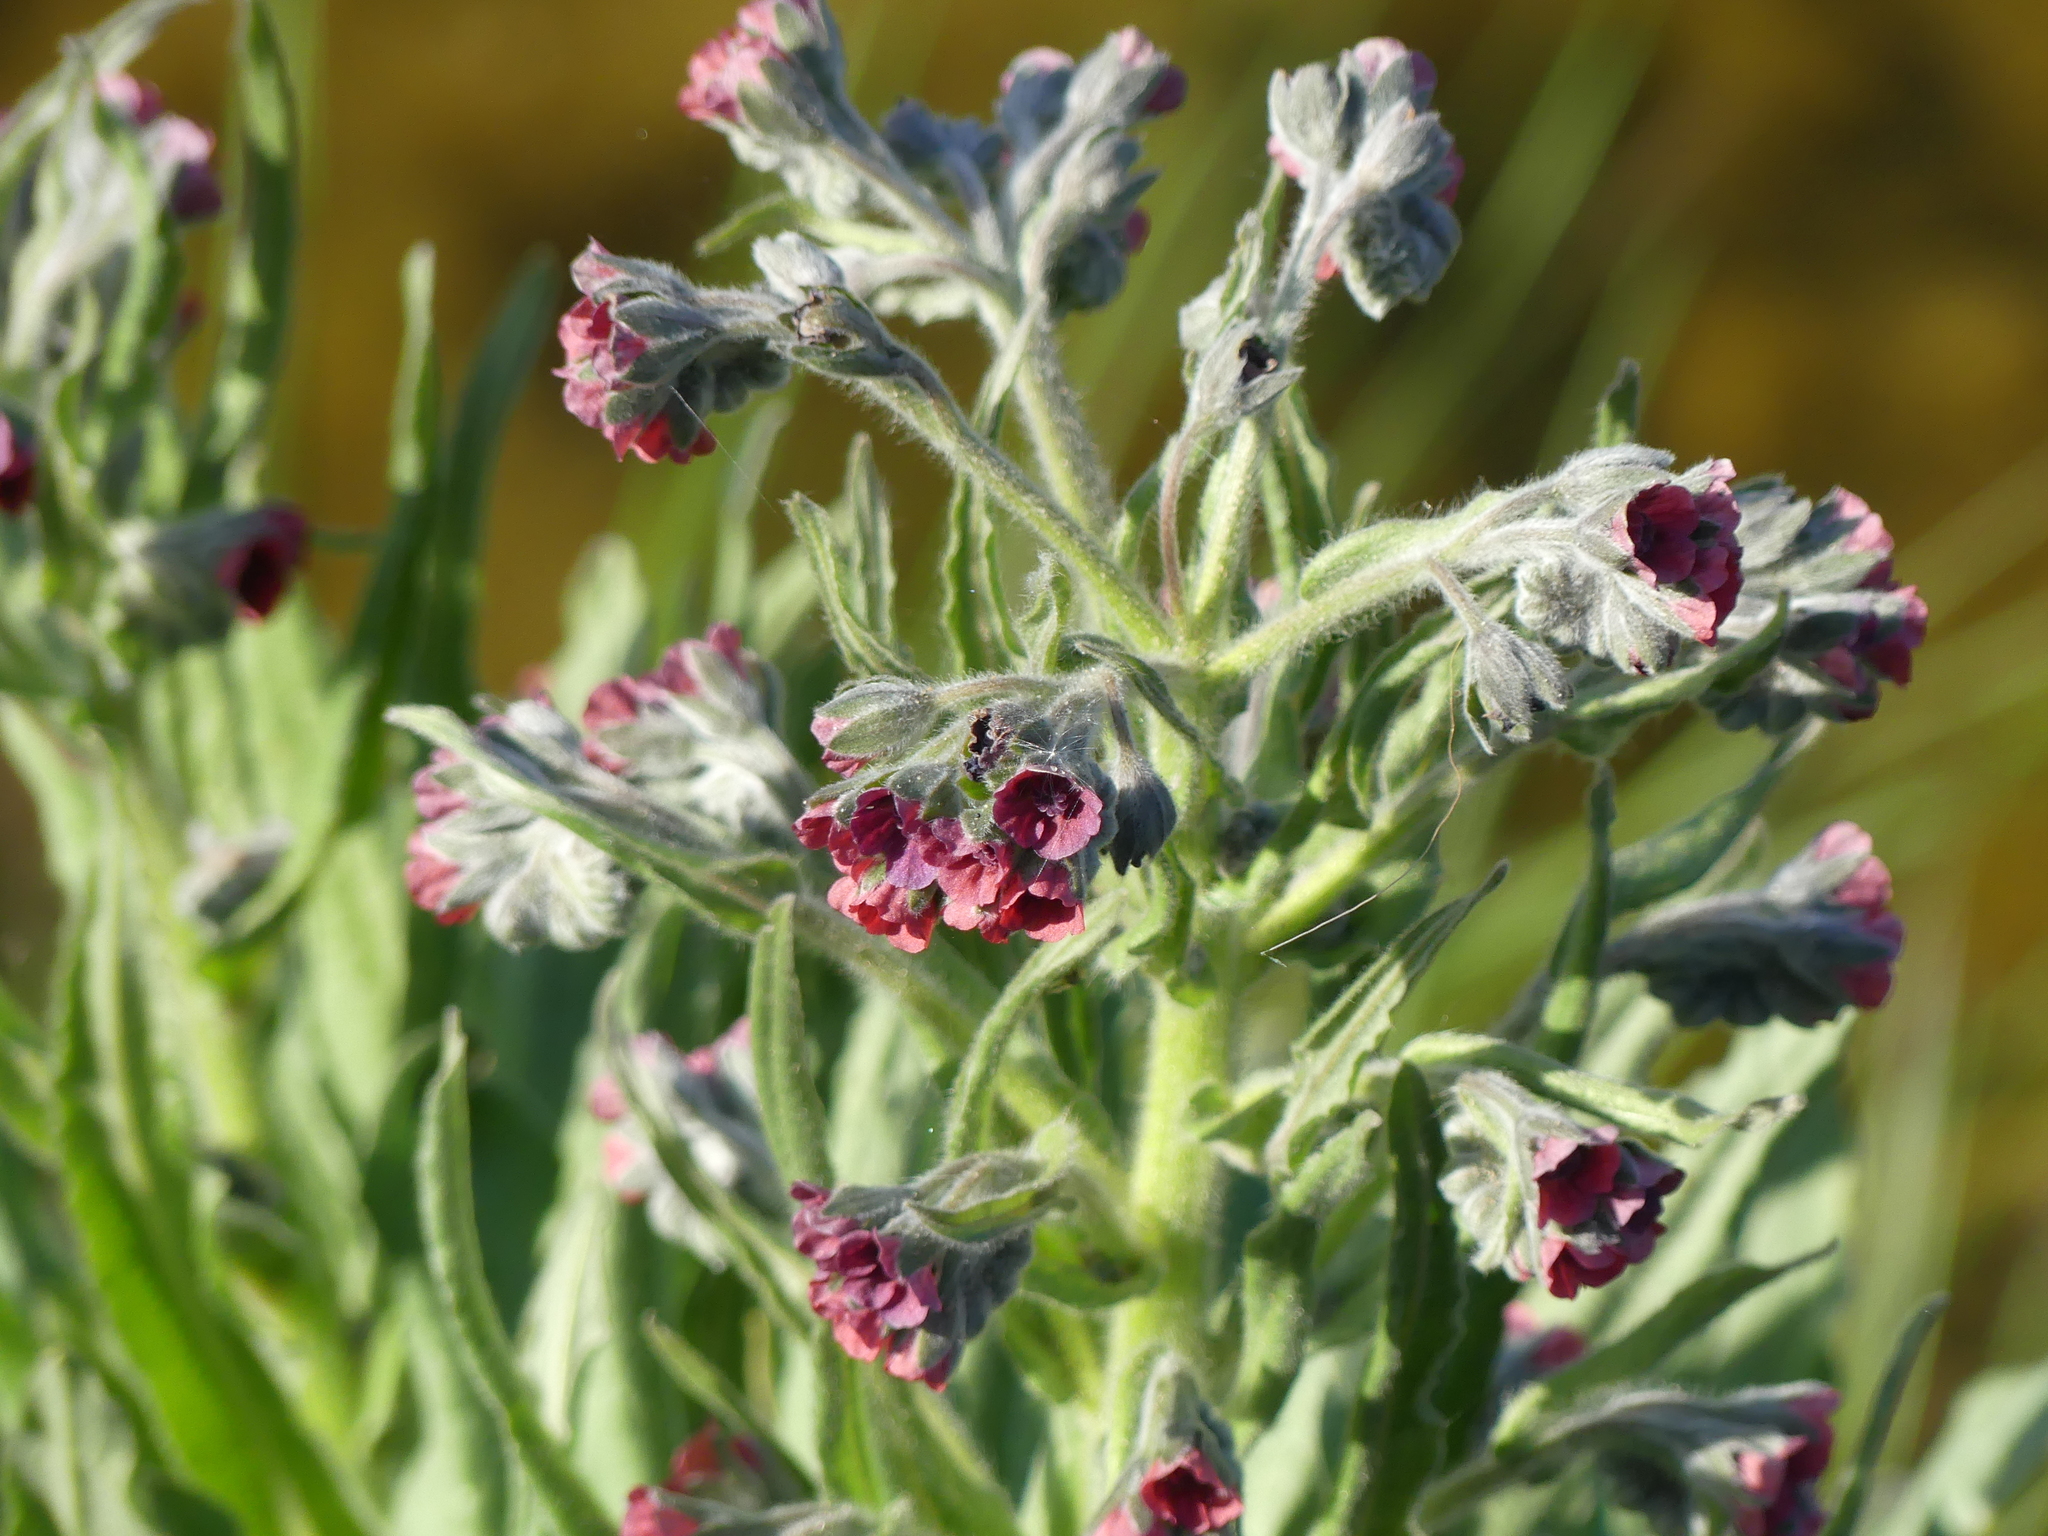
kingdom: Plantae
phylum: Tracheophyta
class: Magnoliopsida
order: Boraginales
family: Boraginaceae
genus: Cynoglossum
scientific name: Cynoglossum officinale
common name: Hound's-tongue
